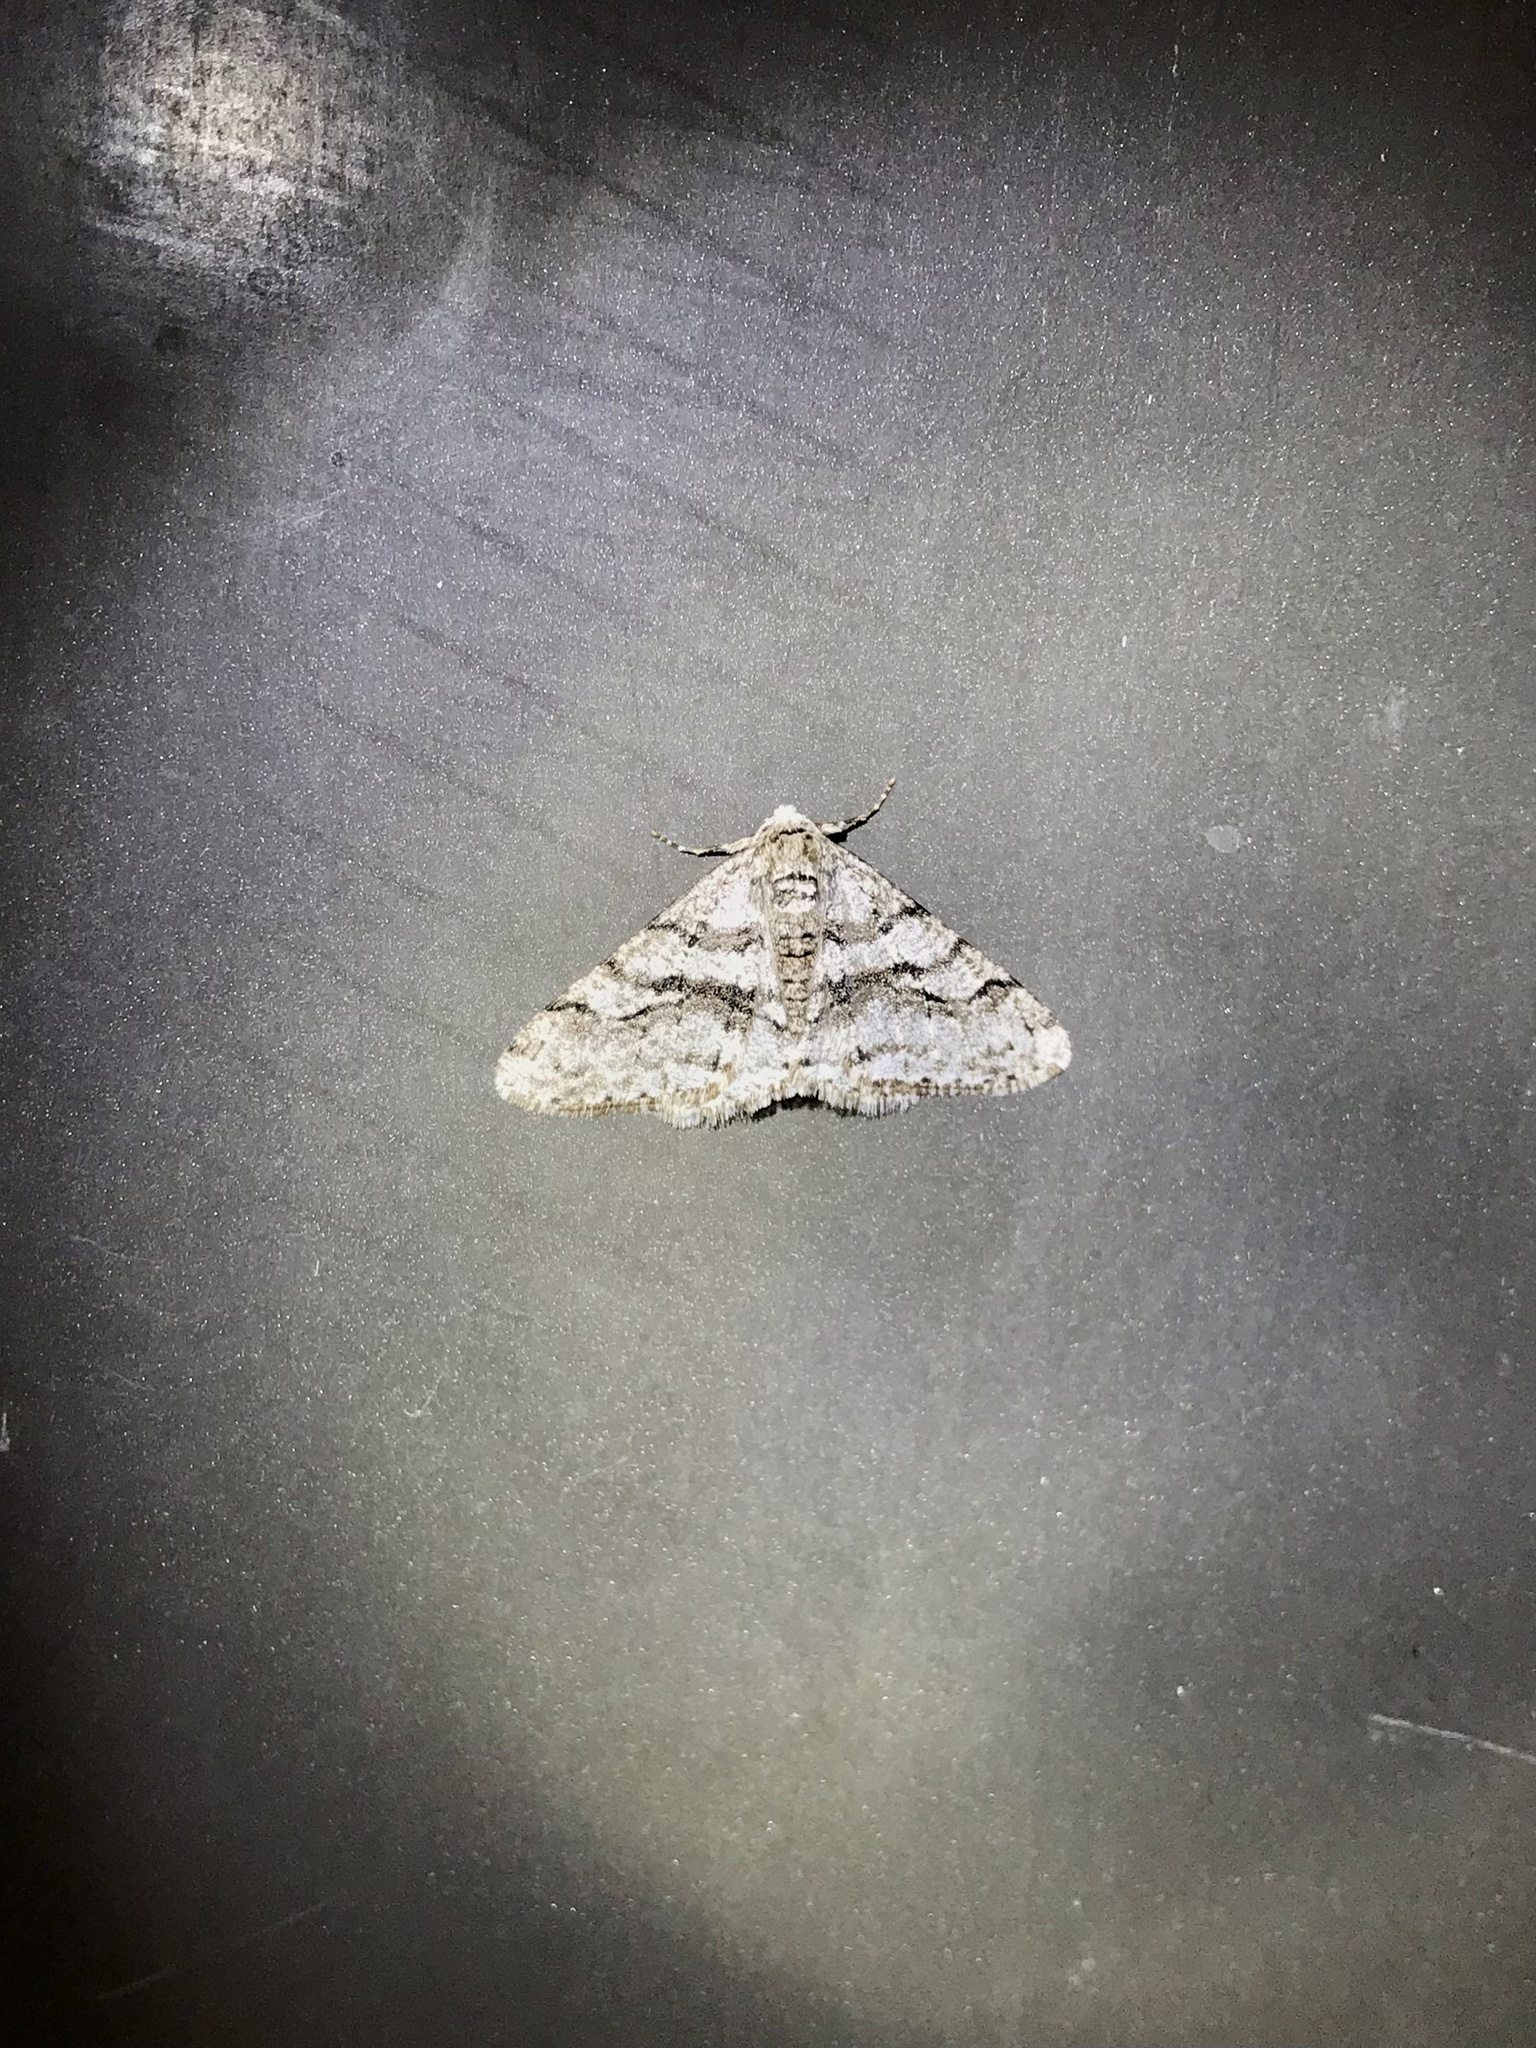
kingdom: Animalia
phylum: Arthropoda
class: Insecta
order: Lepidoptera
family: Geometridae
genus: Phigalia
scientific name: Phigalia titea
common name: Spiny looper
